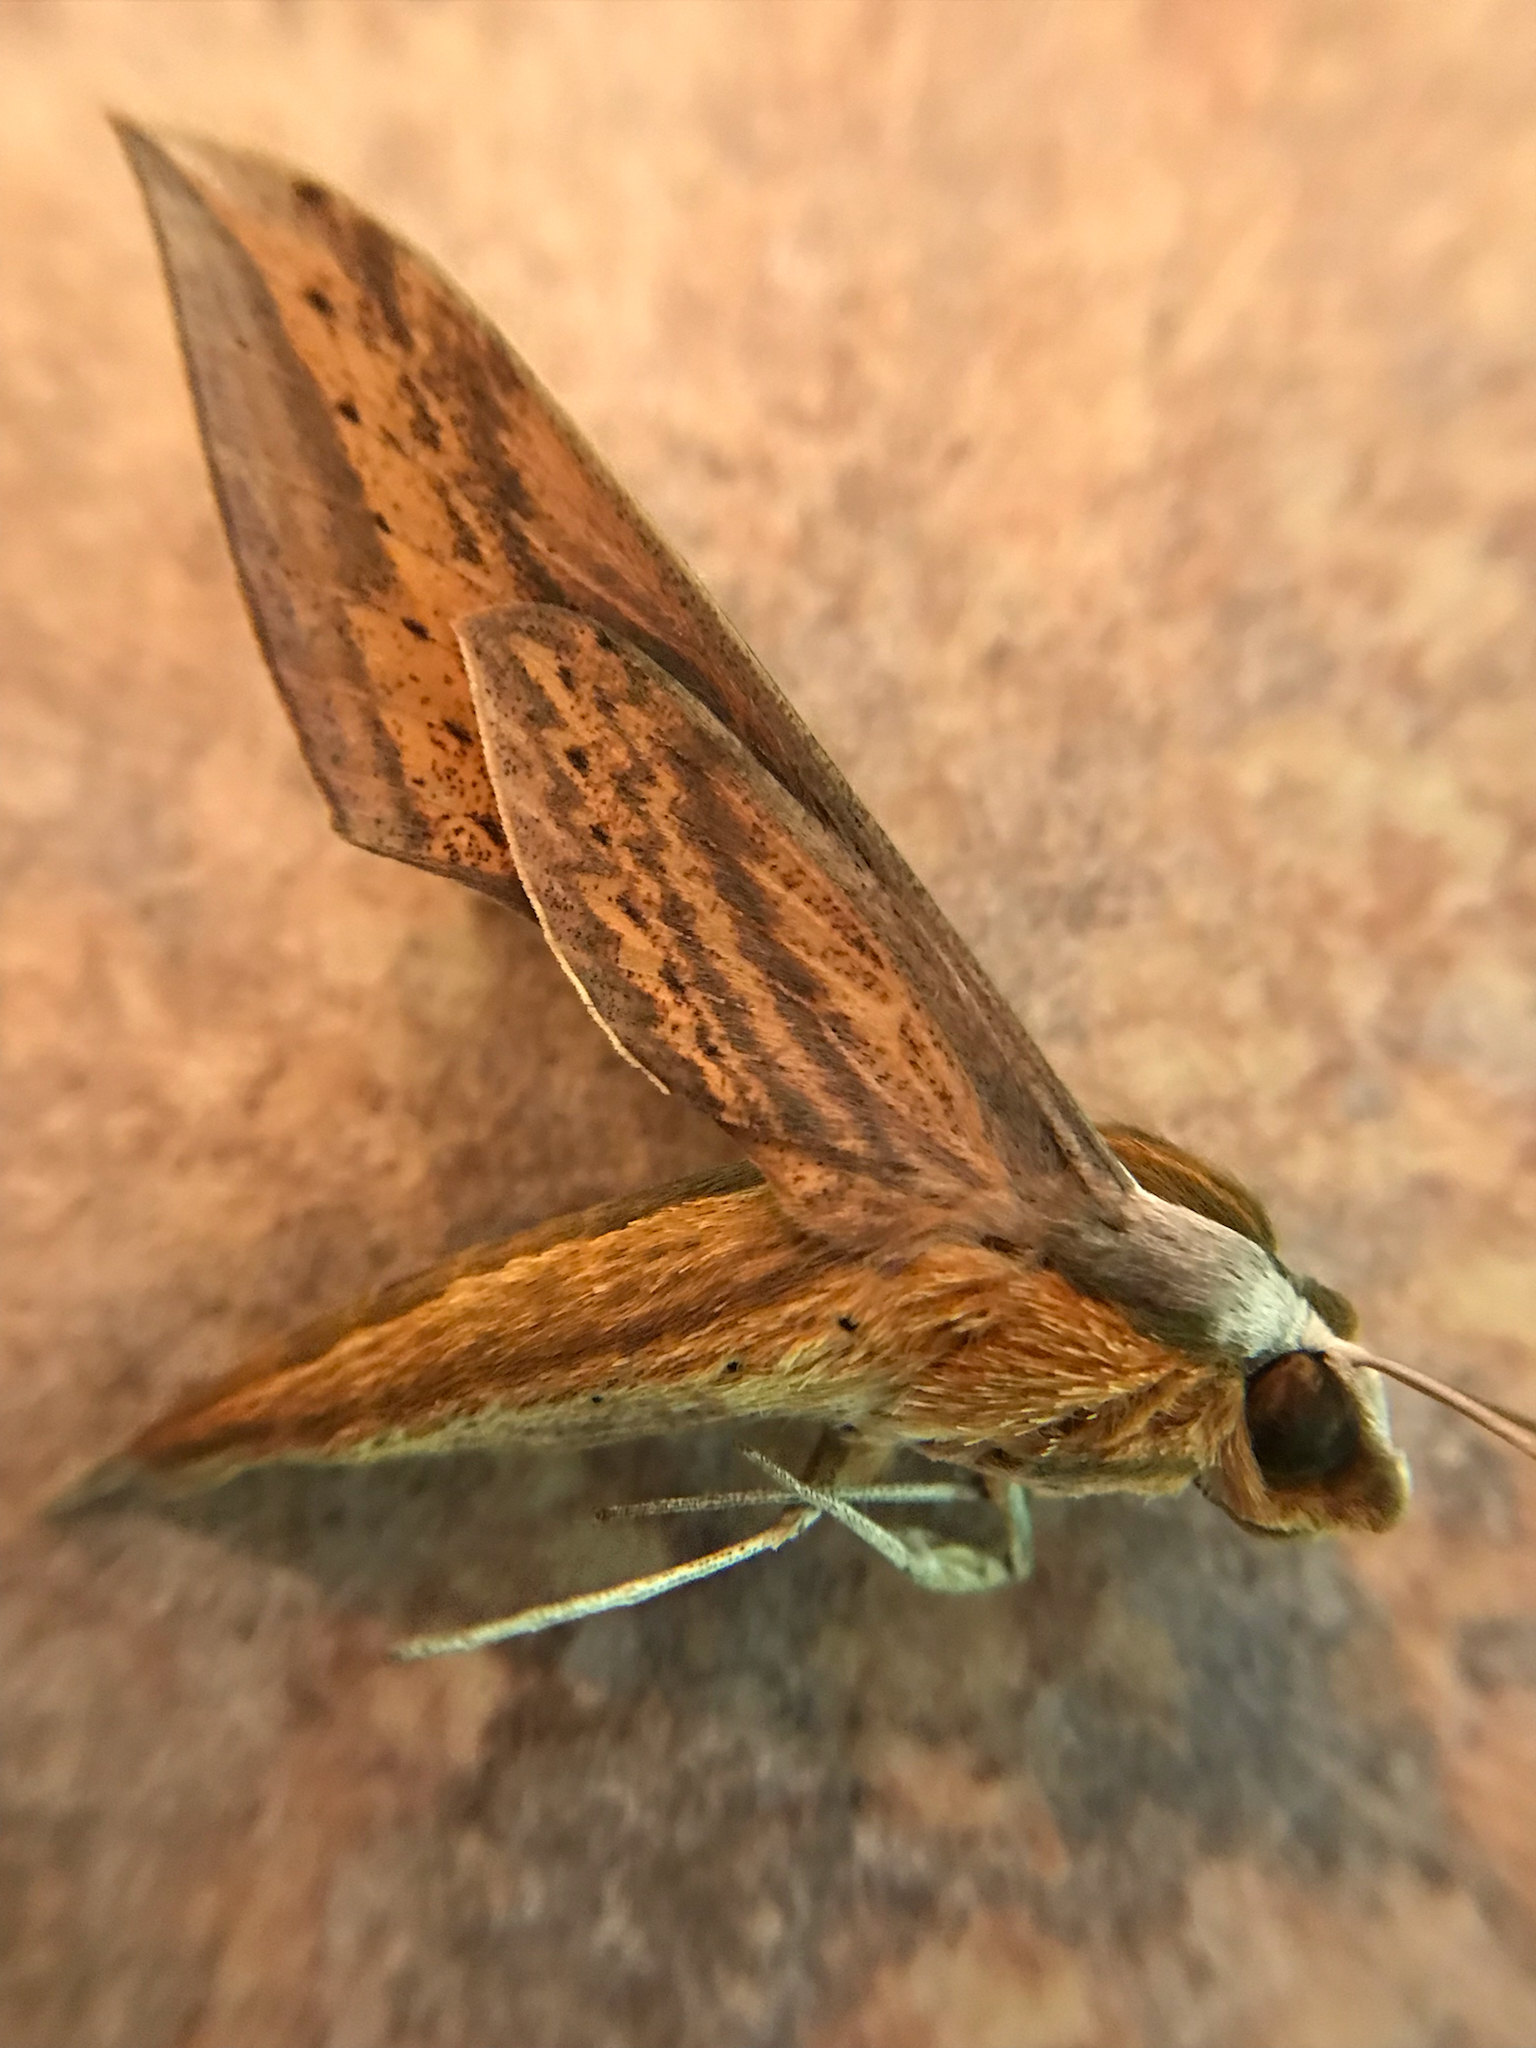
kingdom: Animalia
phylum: Arthropoda
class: Insecta
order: Lepidoptera
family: Sphingidae
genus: Xylophanes
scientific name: Xylophanes tersa
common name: Tersa sphinx
